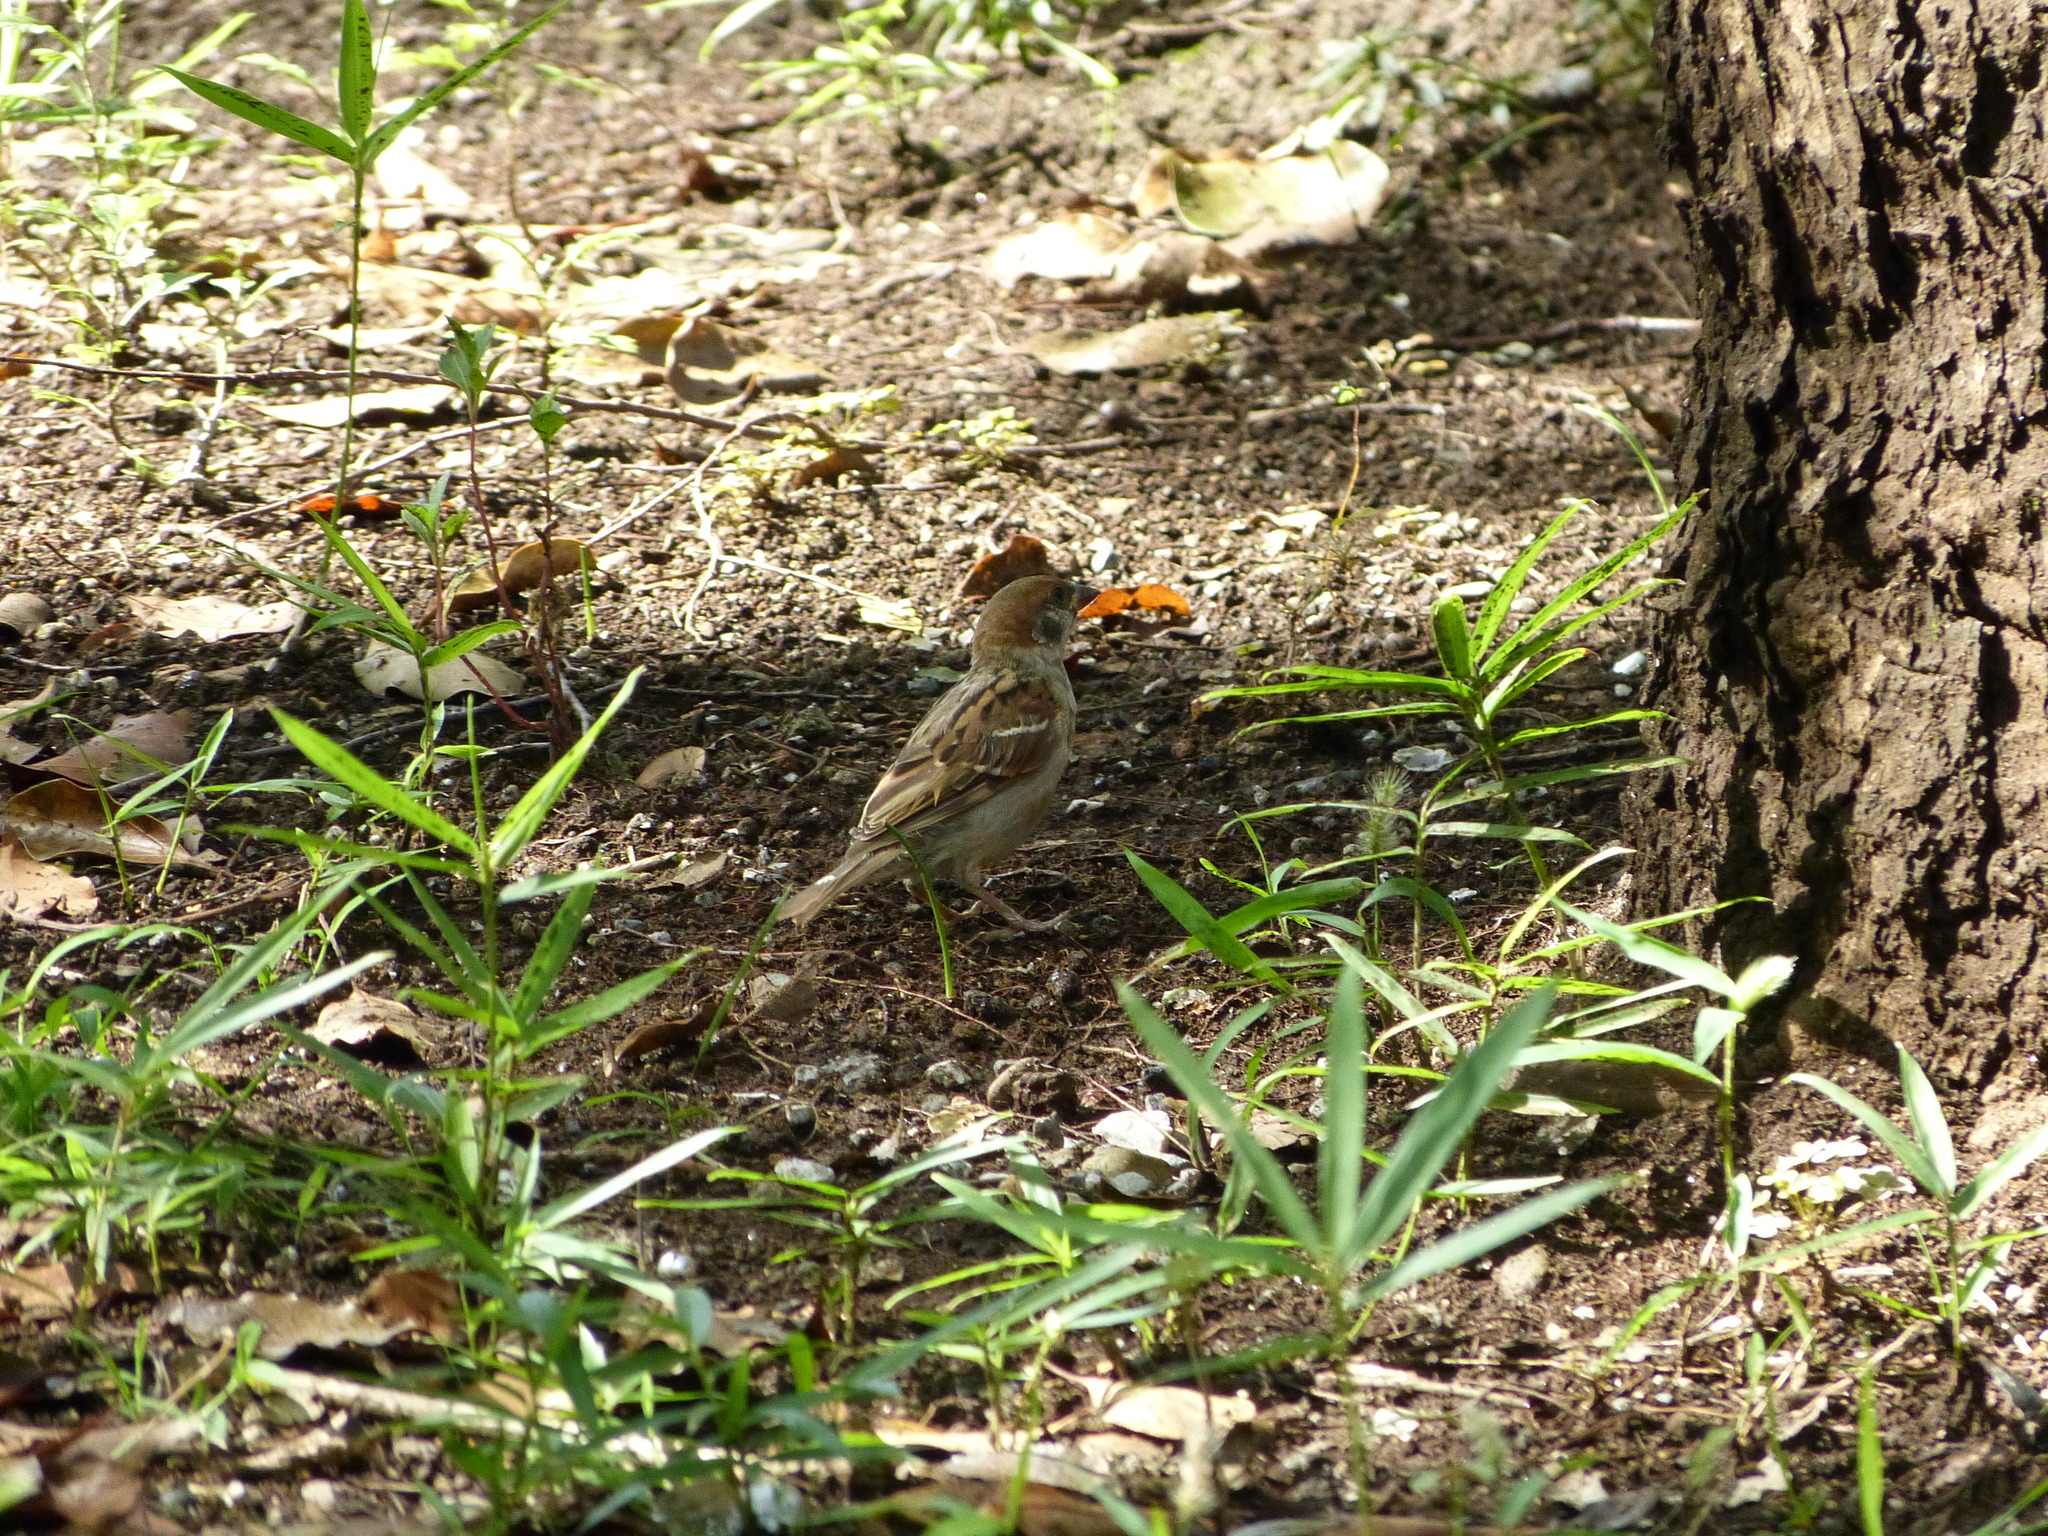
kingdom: Animalia
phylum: Chordata
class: Aves
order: Passeriformes
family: Passeridae
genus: Passer
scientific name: Passer montanus
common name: Eurasian tree sparrow
